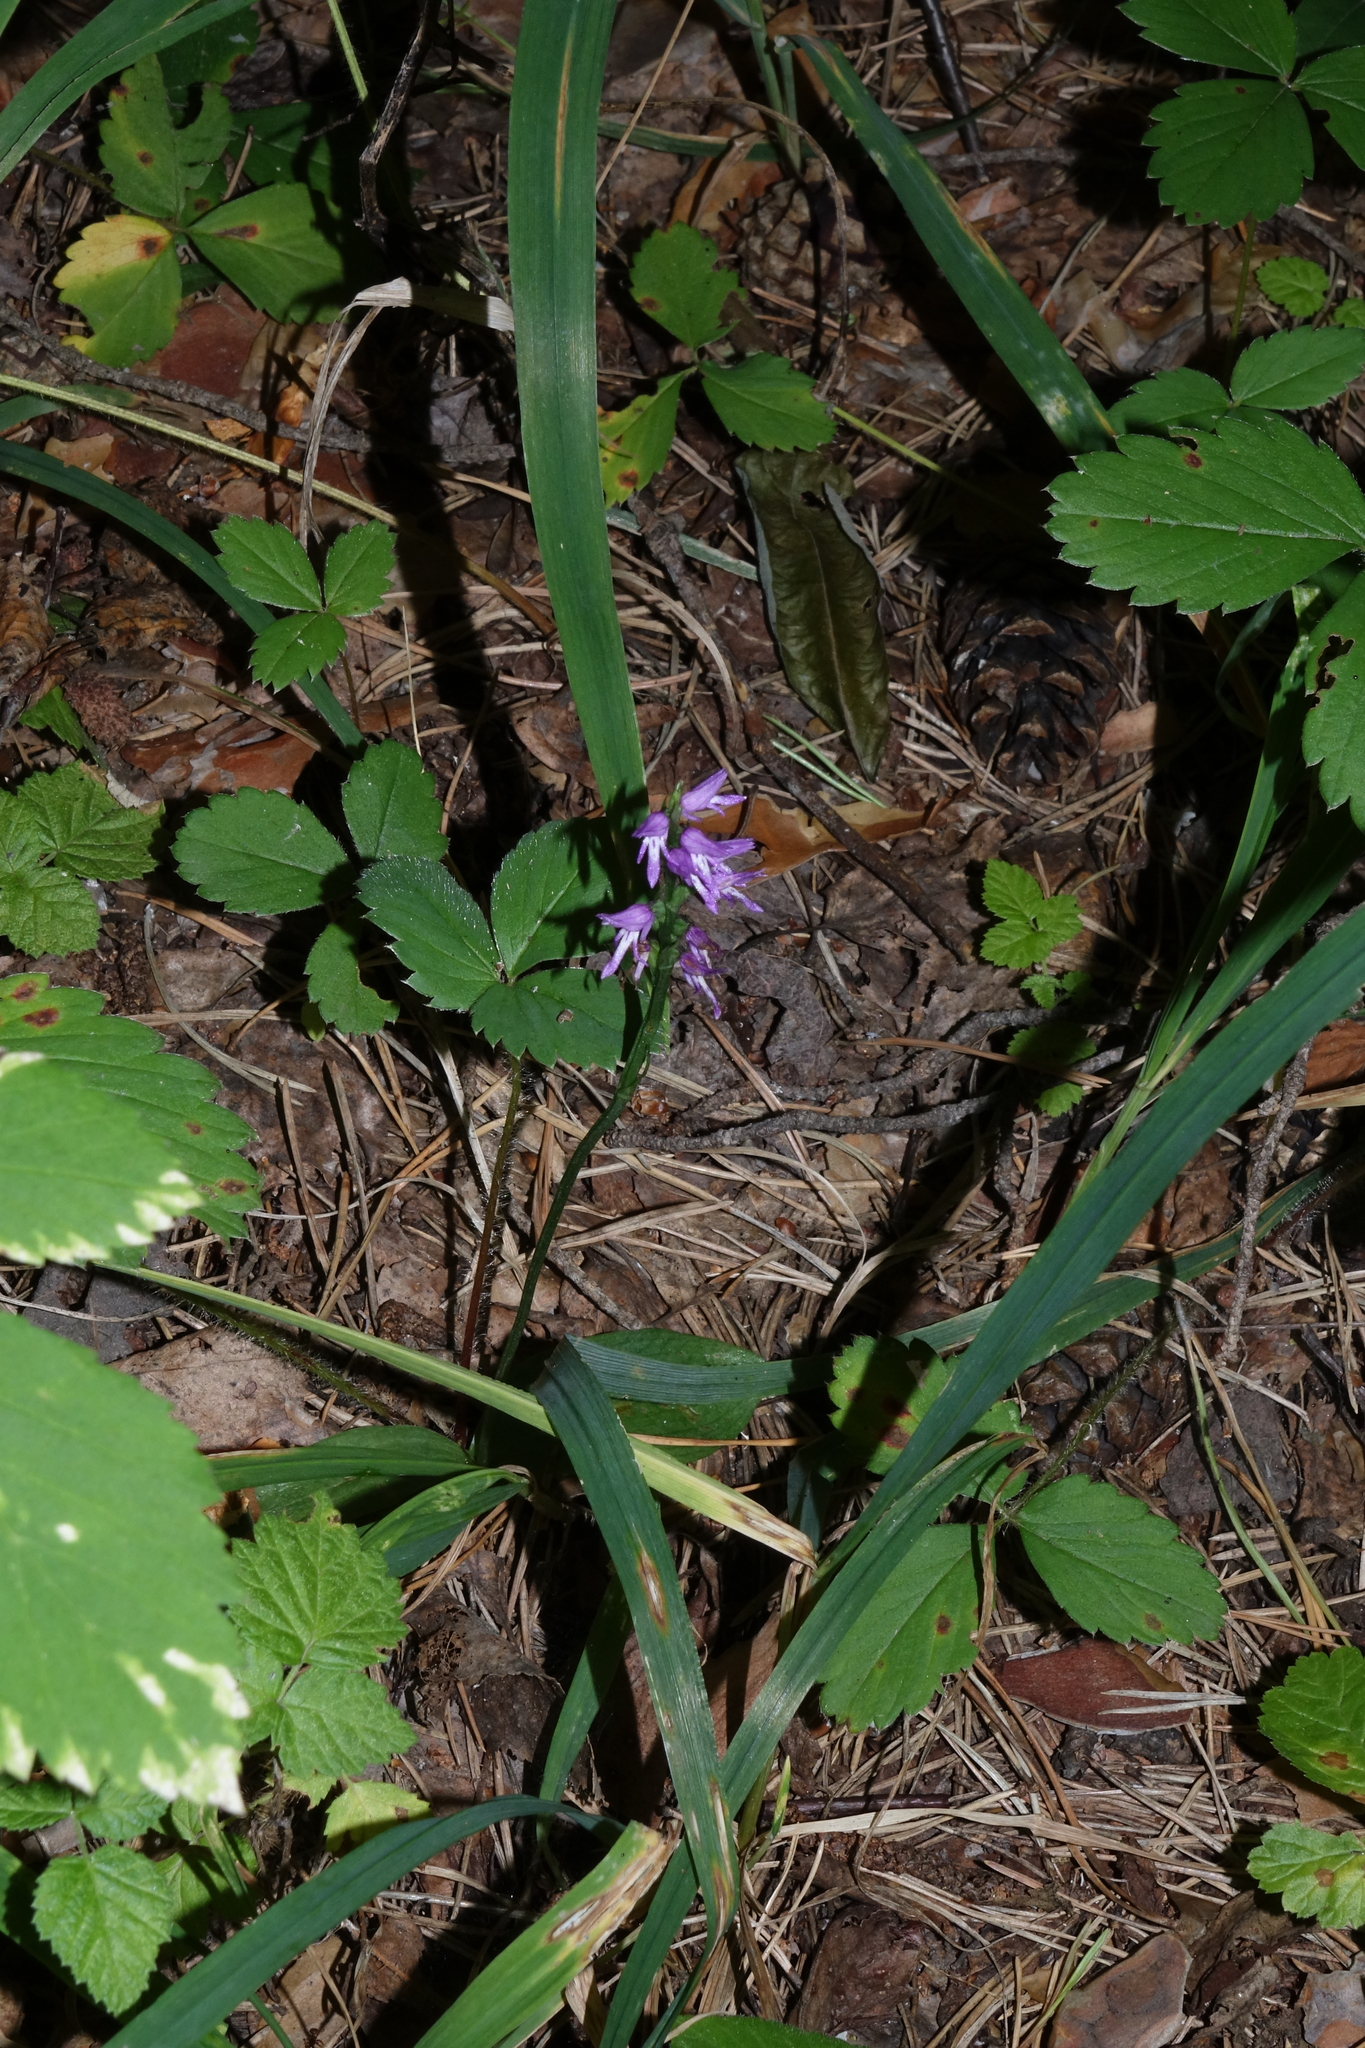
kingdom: Plantae
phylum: Tracheophyta
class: Liliopsida
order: Asparagales
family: Orchidaceae
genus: Hemipilia
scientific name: Hemipilia cucullata
